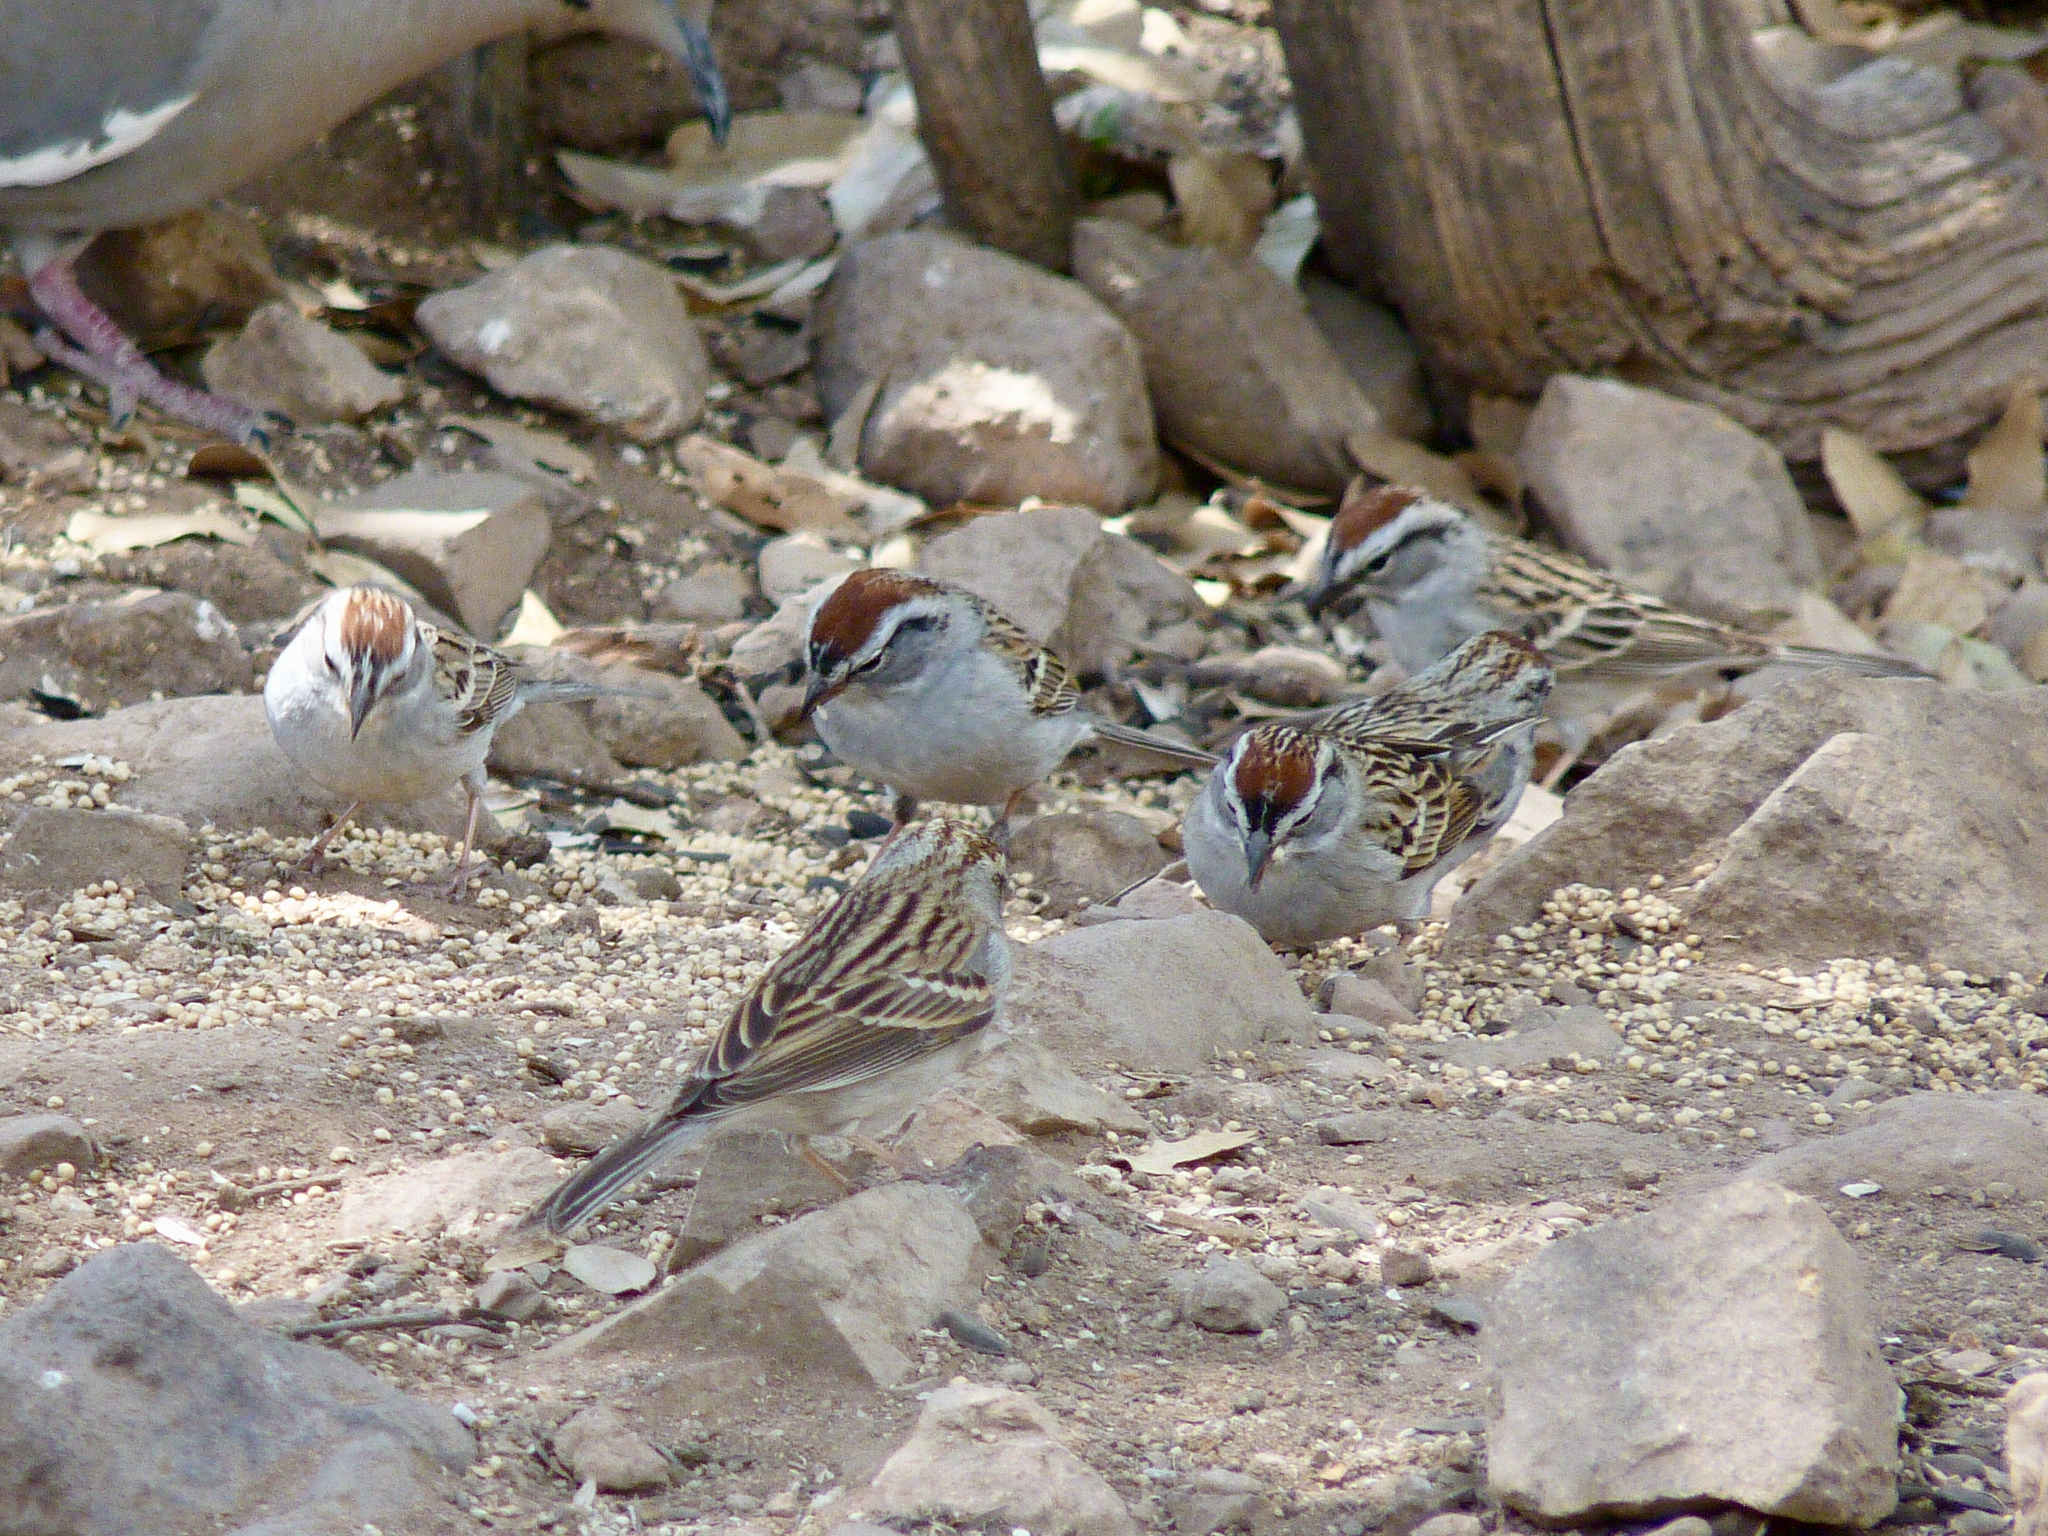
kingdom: Animalia
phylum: Chordata
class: Aves
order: Passeriformes
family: Passerellidae
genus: Spizella
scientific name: Spizella passerina
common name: Chipping sparrow
